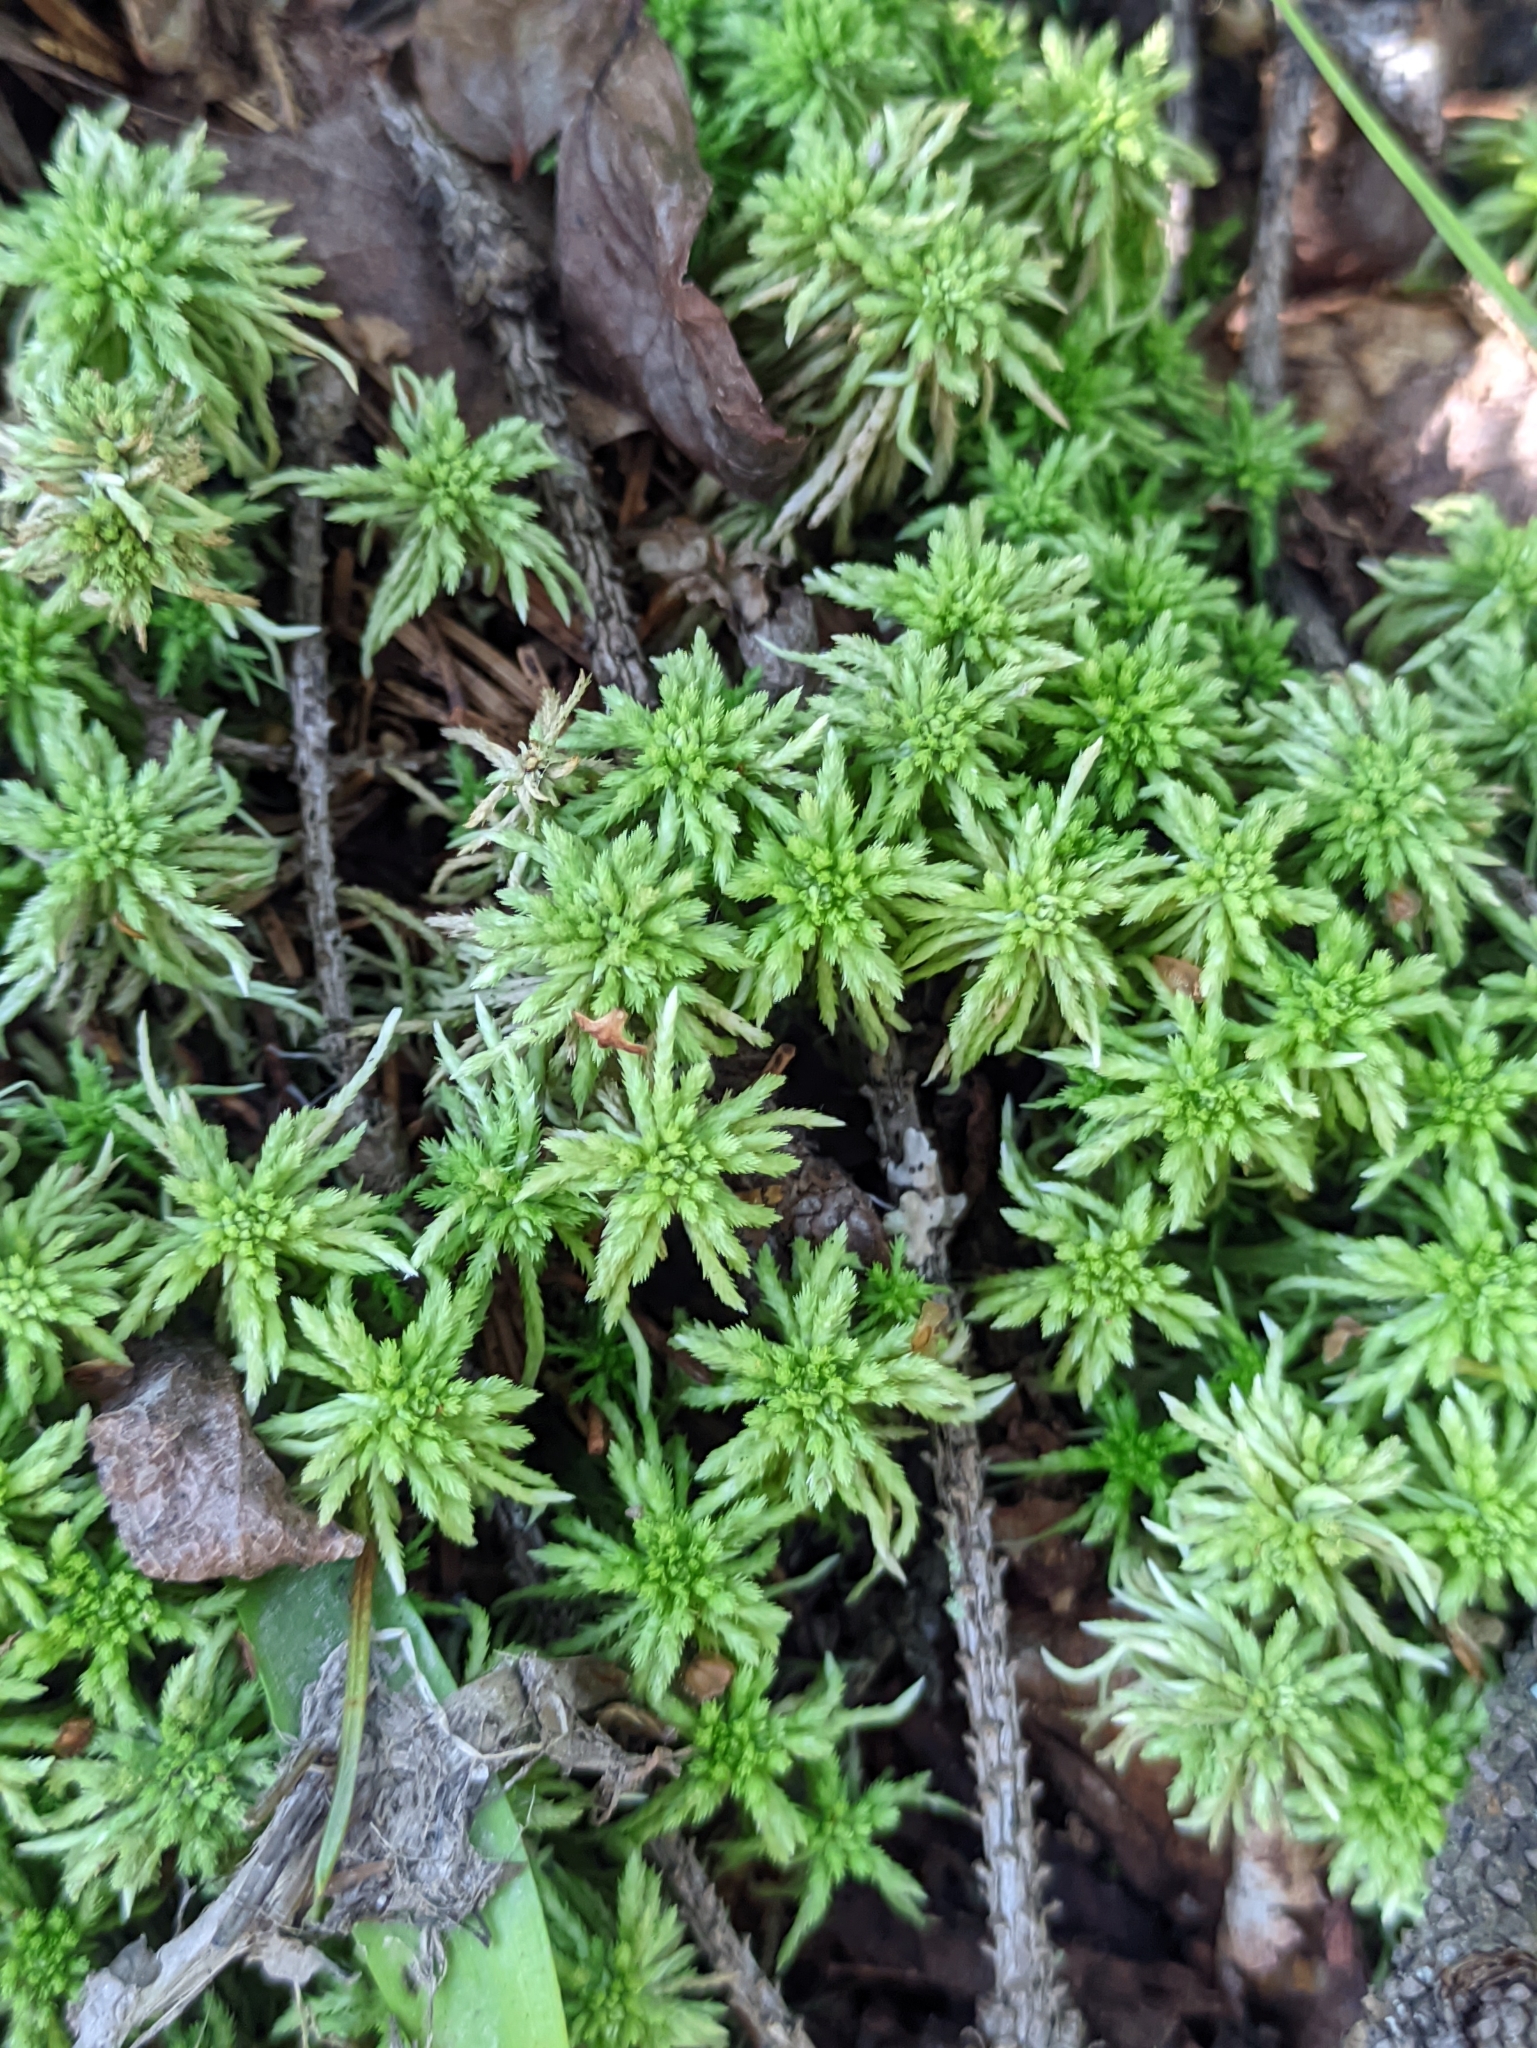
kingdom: Plantae
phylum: Bryophyta
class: Sphagnopsida
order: Sphagnales
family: Sphagnaceae
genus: Sphagnum
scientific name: Sphagnum girgensohnii
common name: Girgensohn's peat moss
